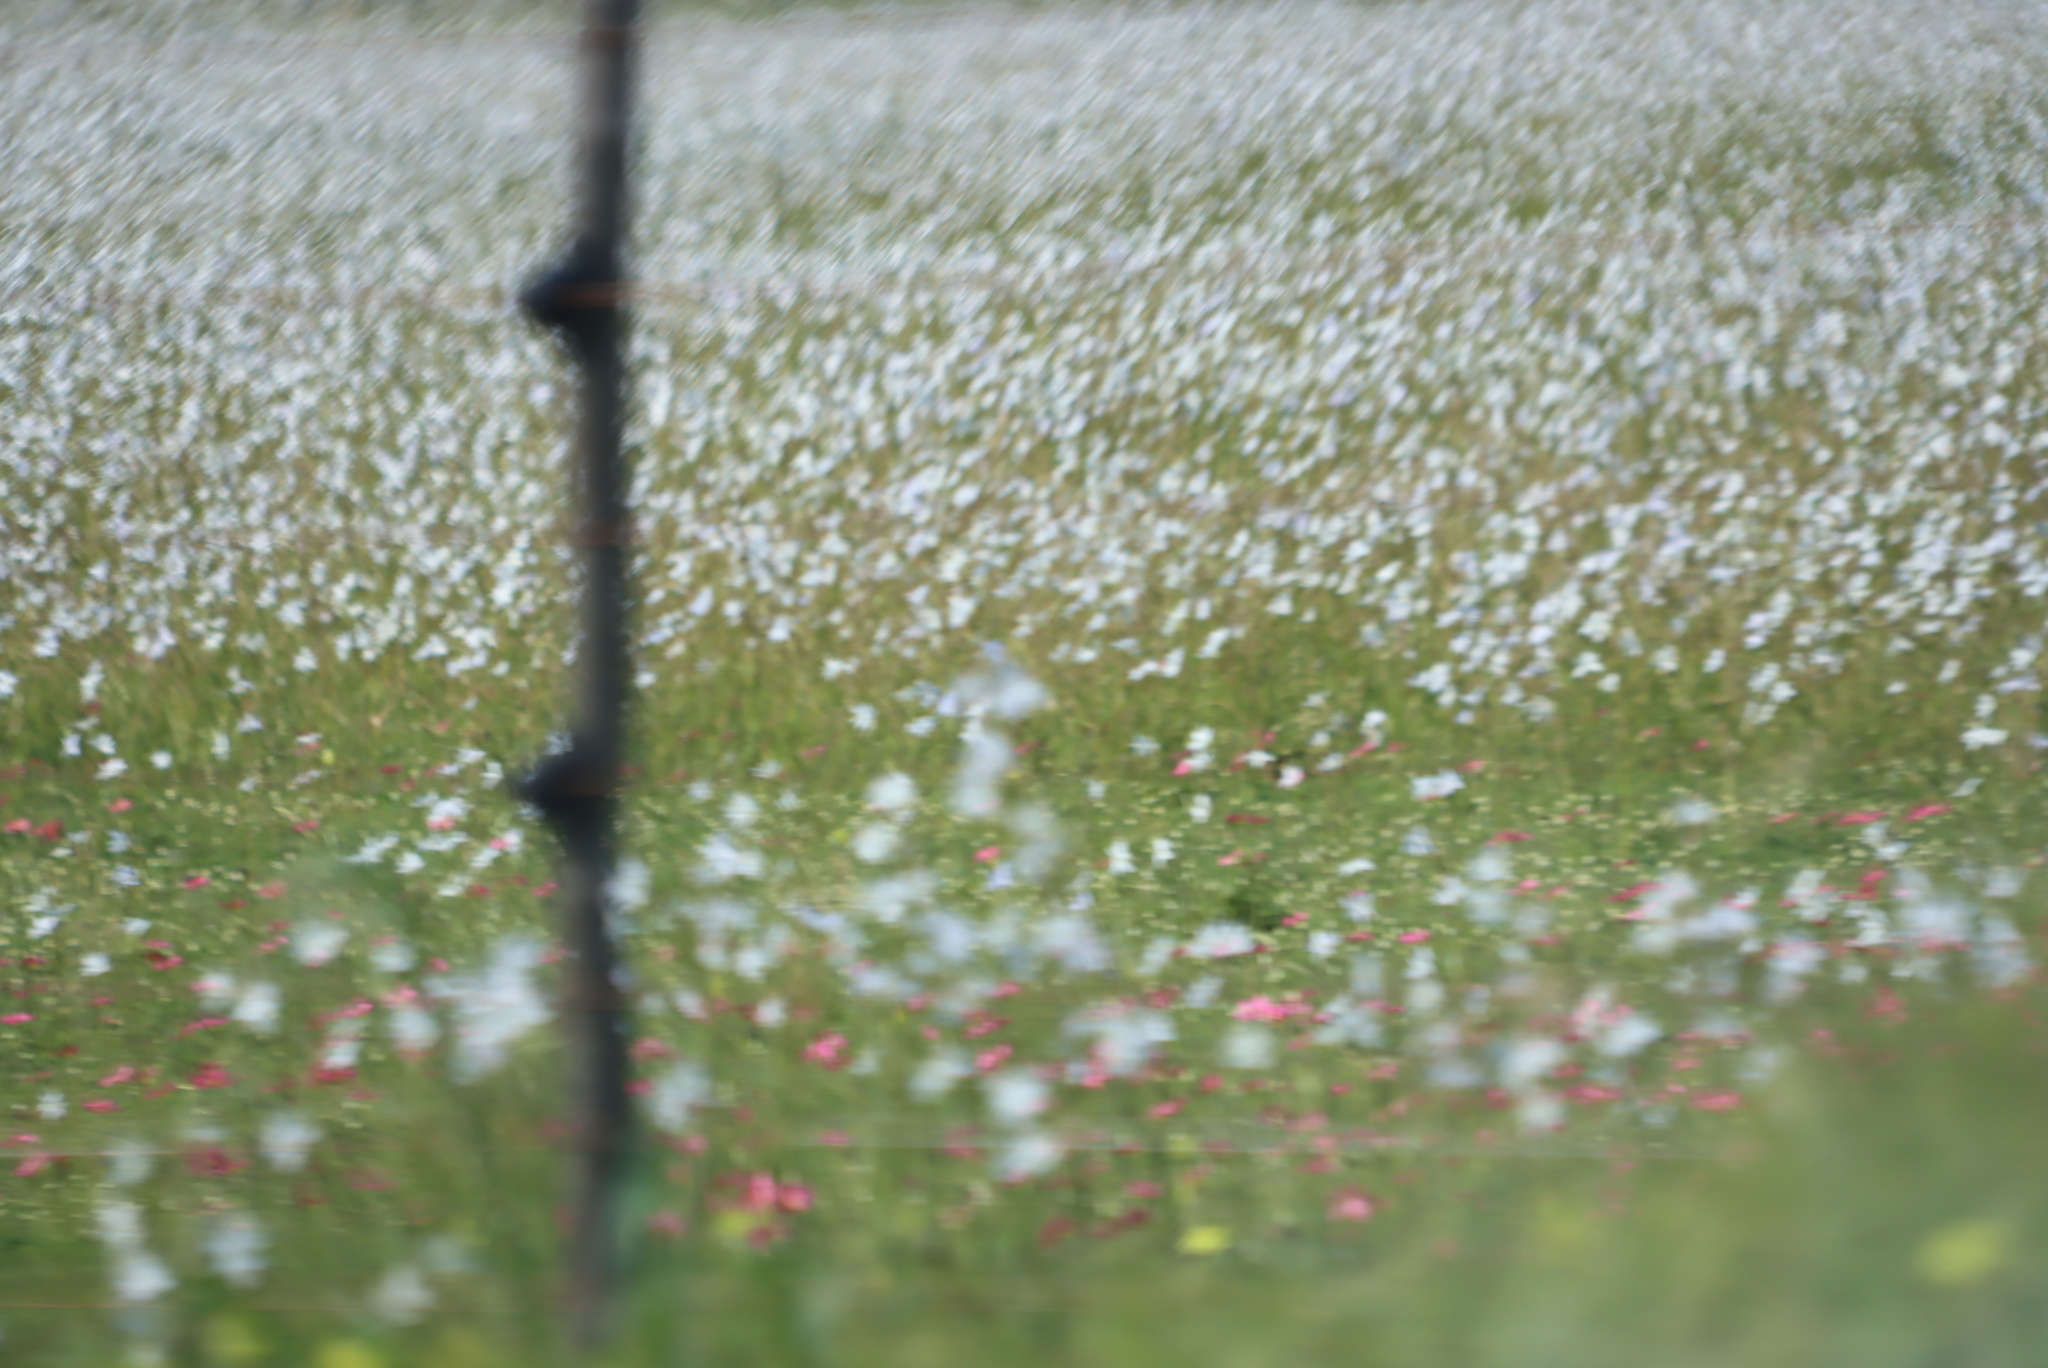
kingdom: Plantae
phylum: Tracheophyta
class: Liliopsida
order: Asparagales
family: Iridaceae
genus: Moraea
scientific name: Moraea polyanthos
